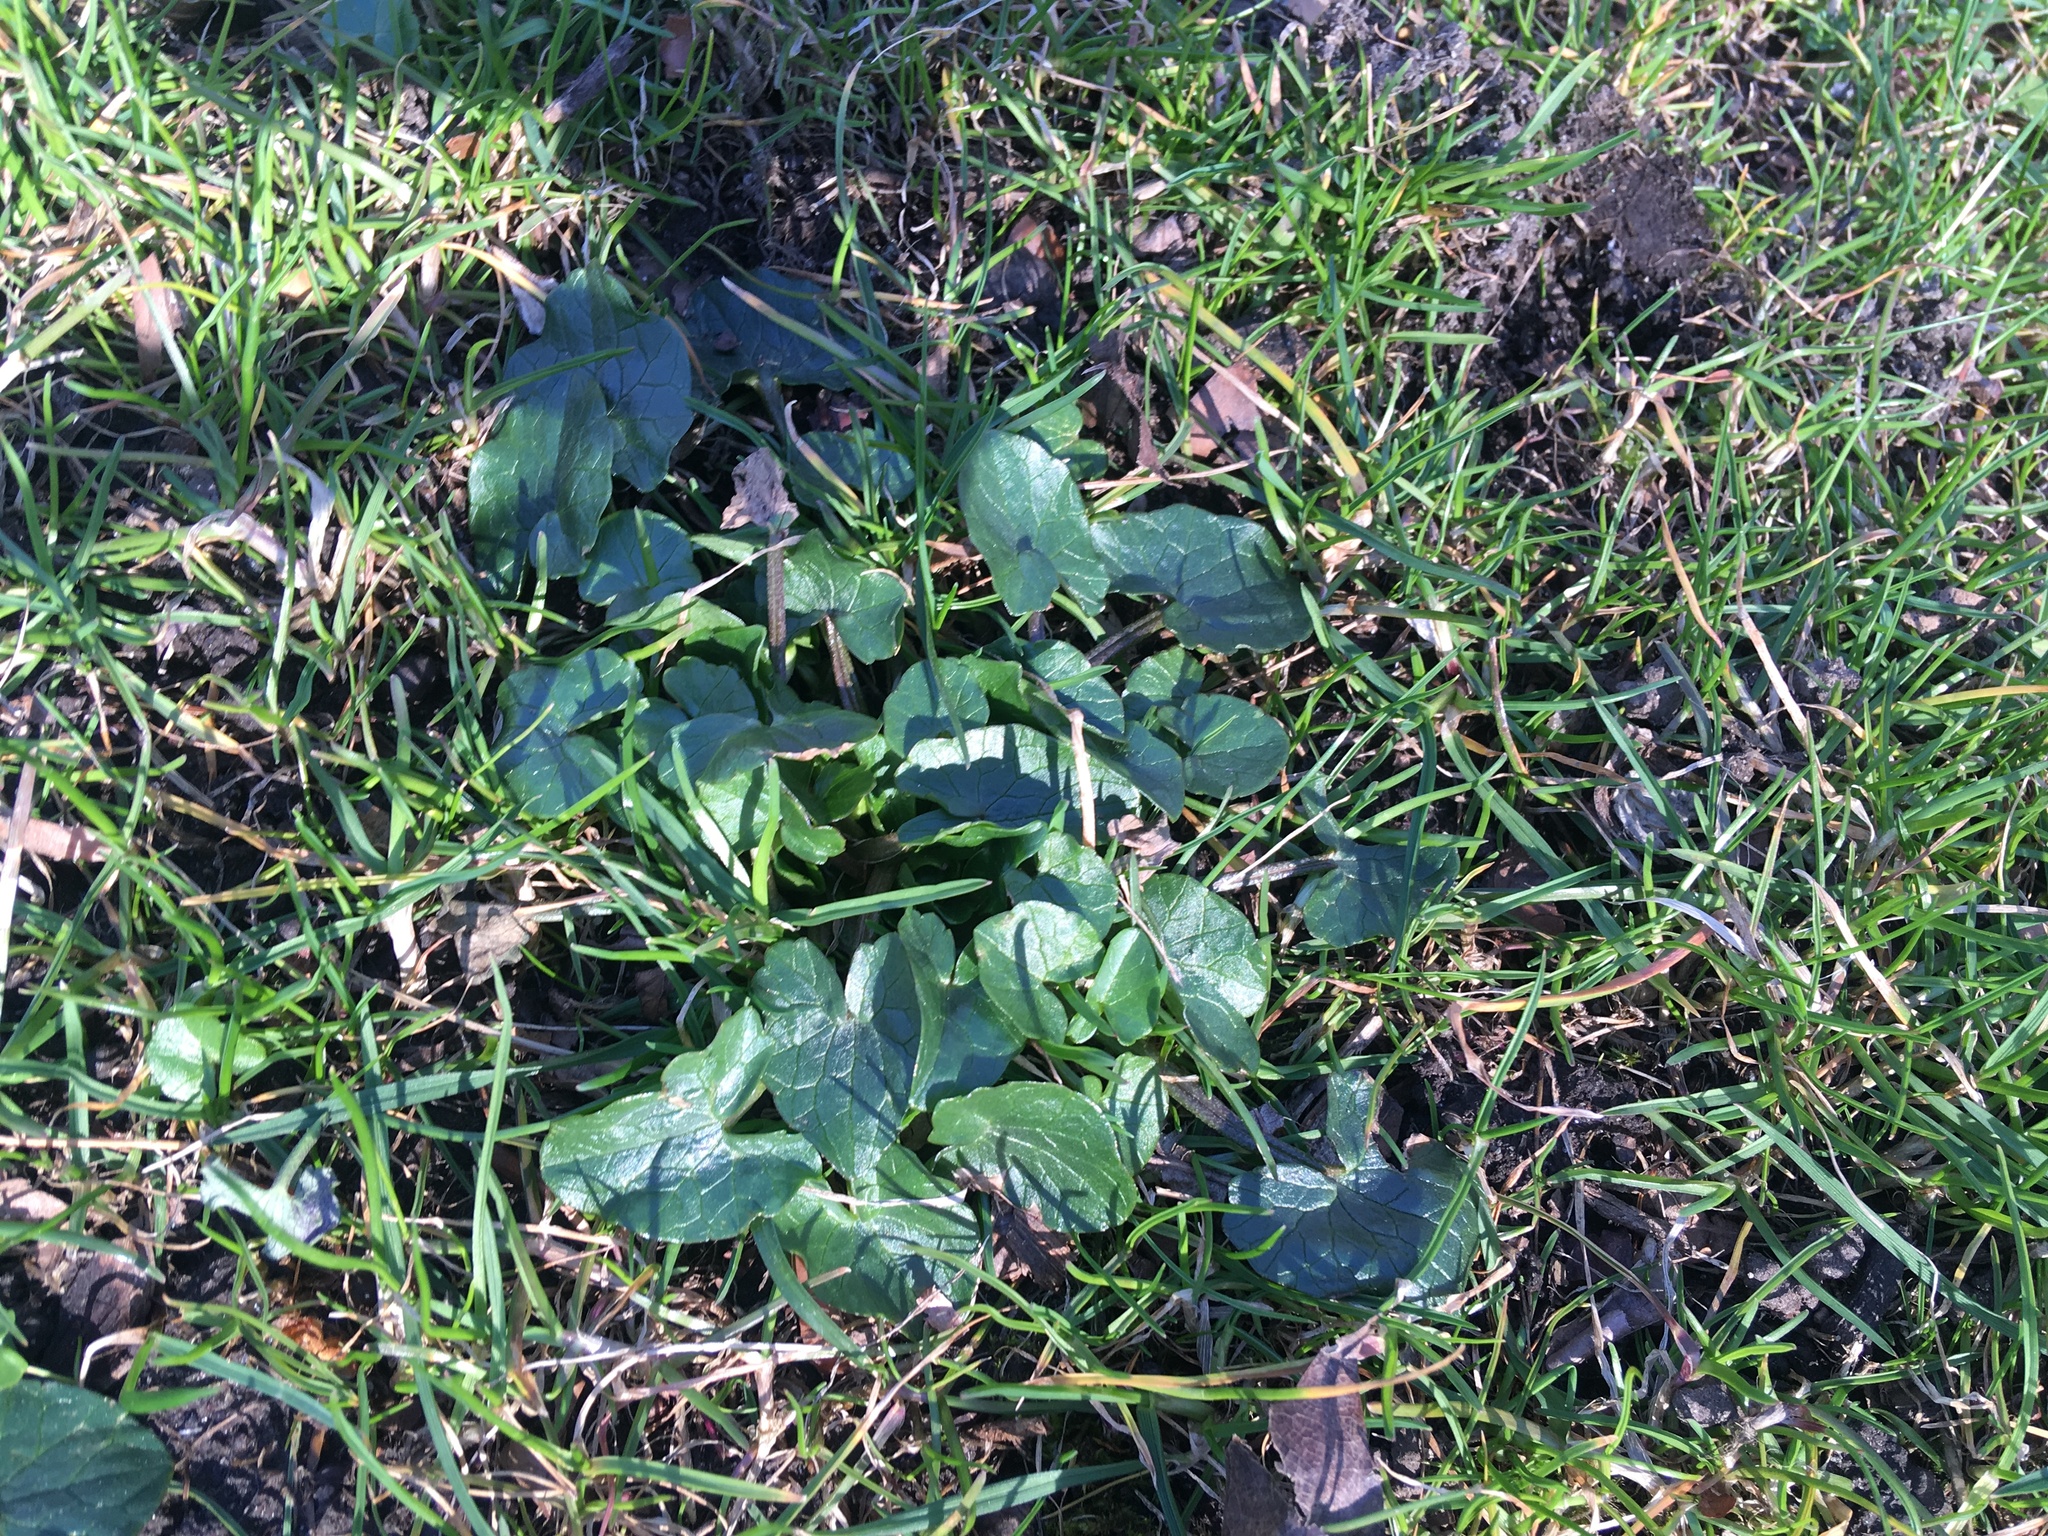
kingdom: Plantae
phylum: Tracheophyta
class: Magnoliopsida
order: Ranunculales
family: Ranunculaceae
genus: Ficaria
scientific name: Ficaria verna
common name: Lesser celandine
